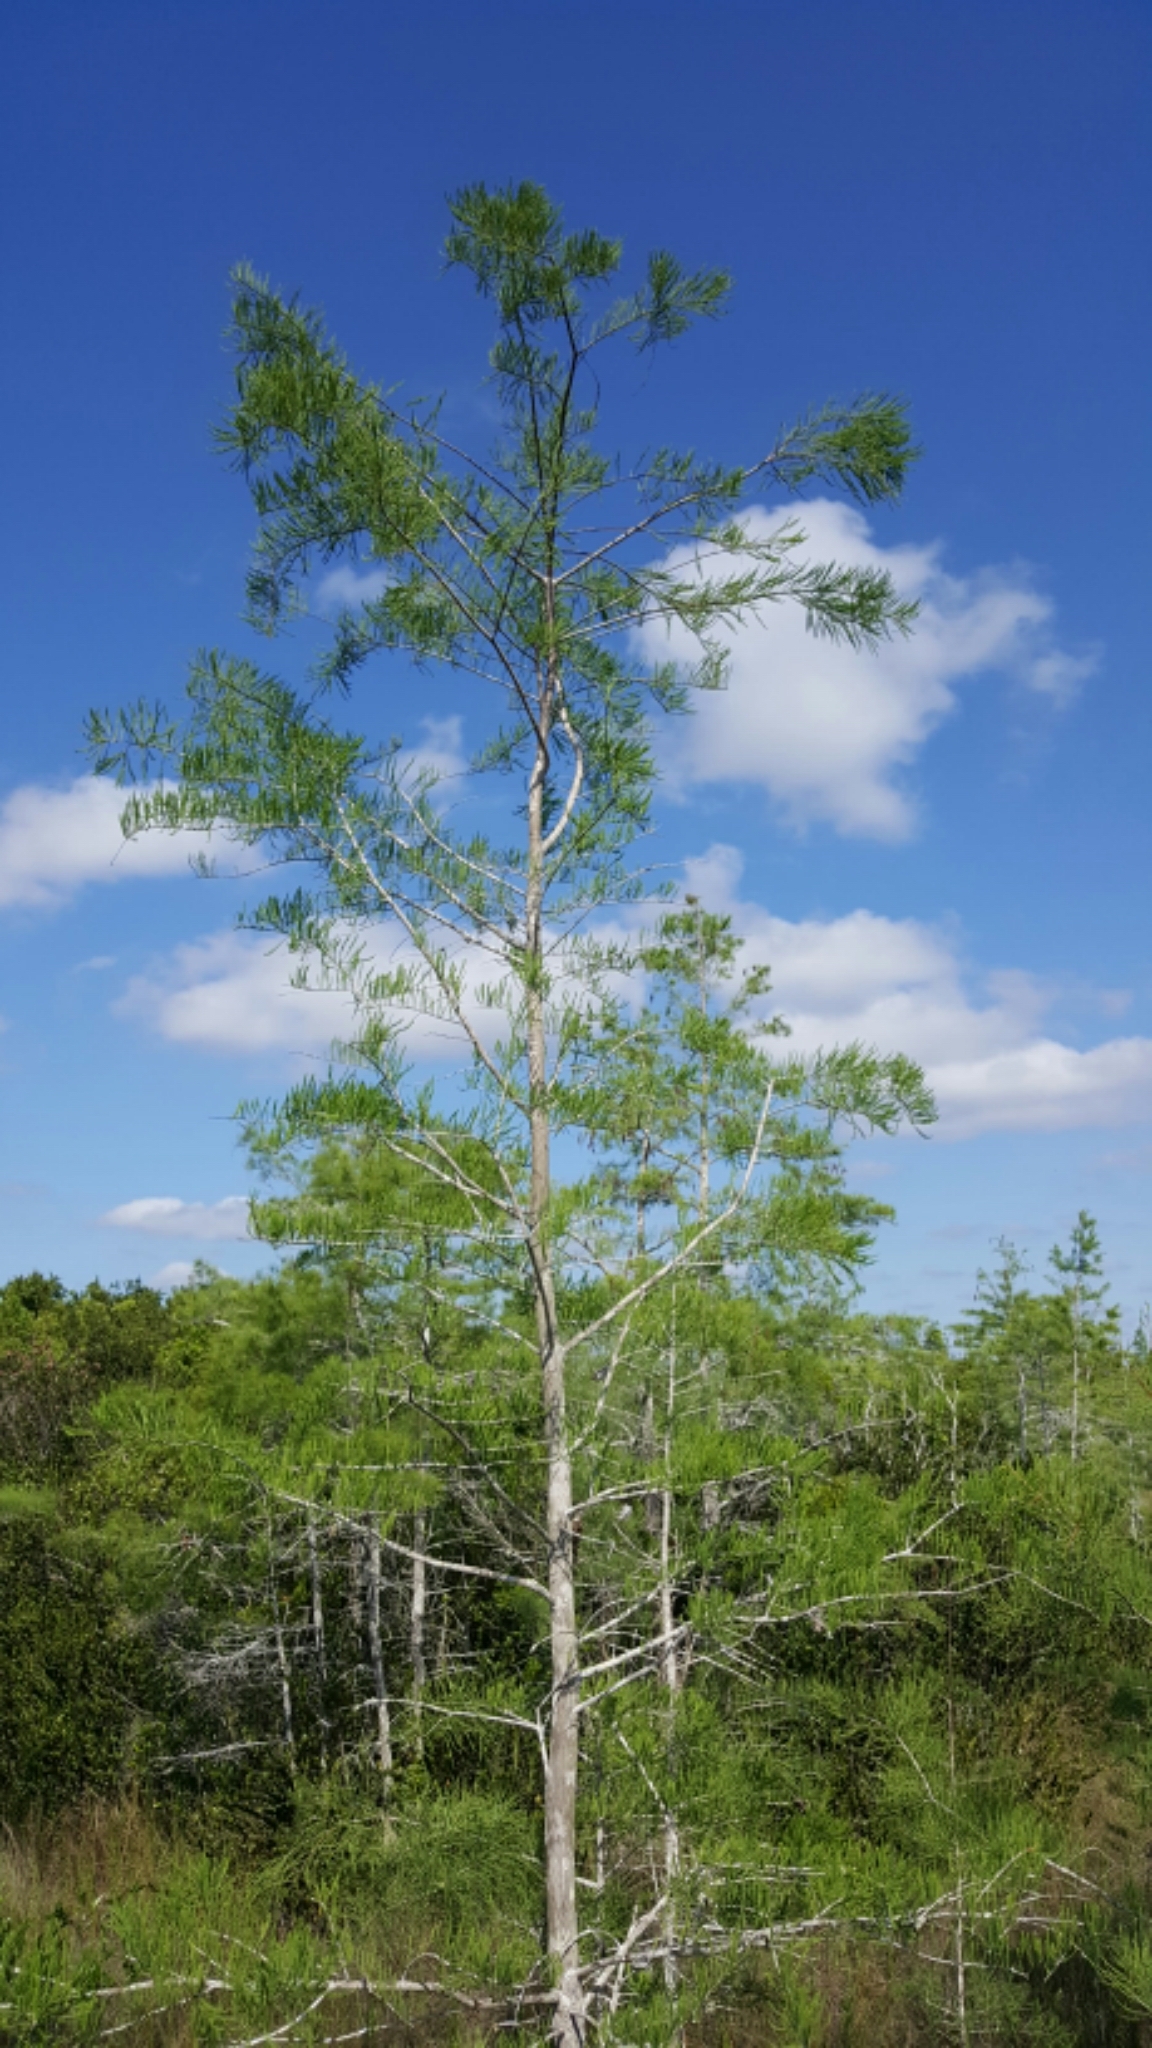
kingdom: Plantae
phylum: Tracheophyta
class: Pinopsida
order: Pinales
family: Cupressaceae
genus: Taxodium
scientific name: Taxodium distichum
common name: Bald cypress
